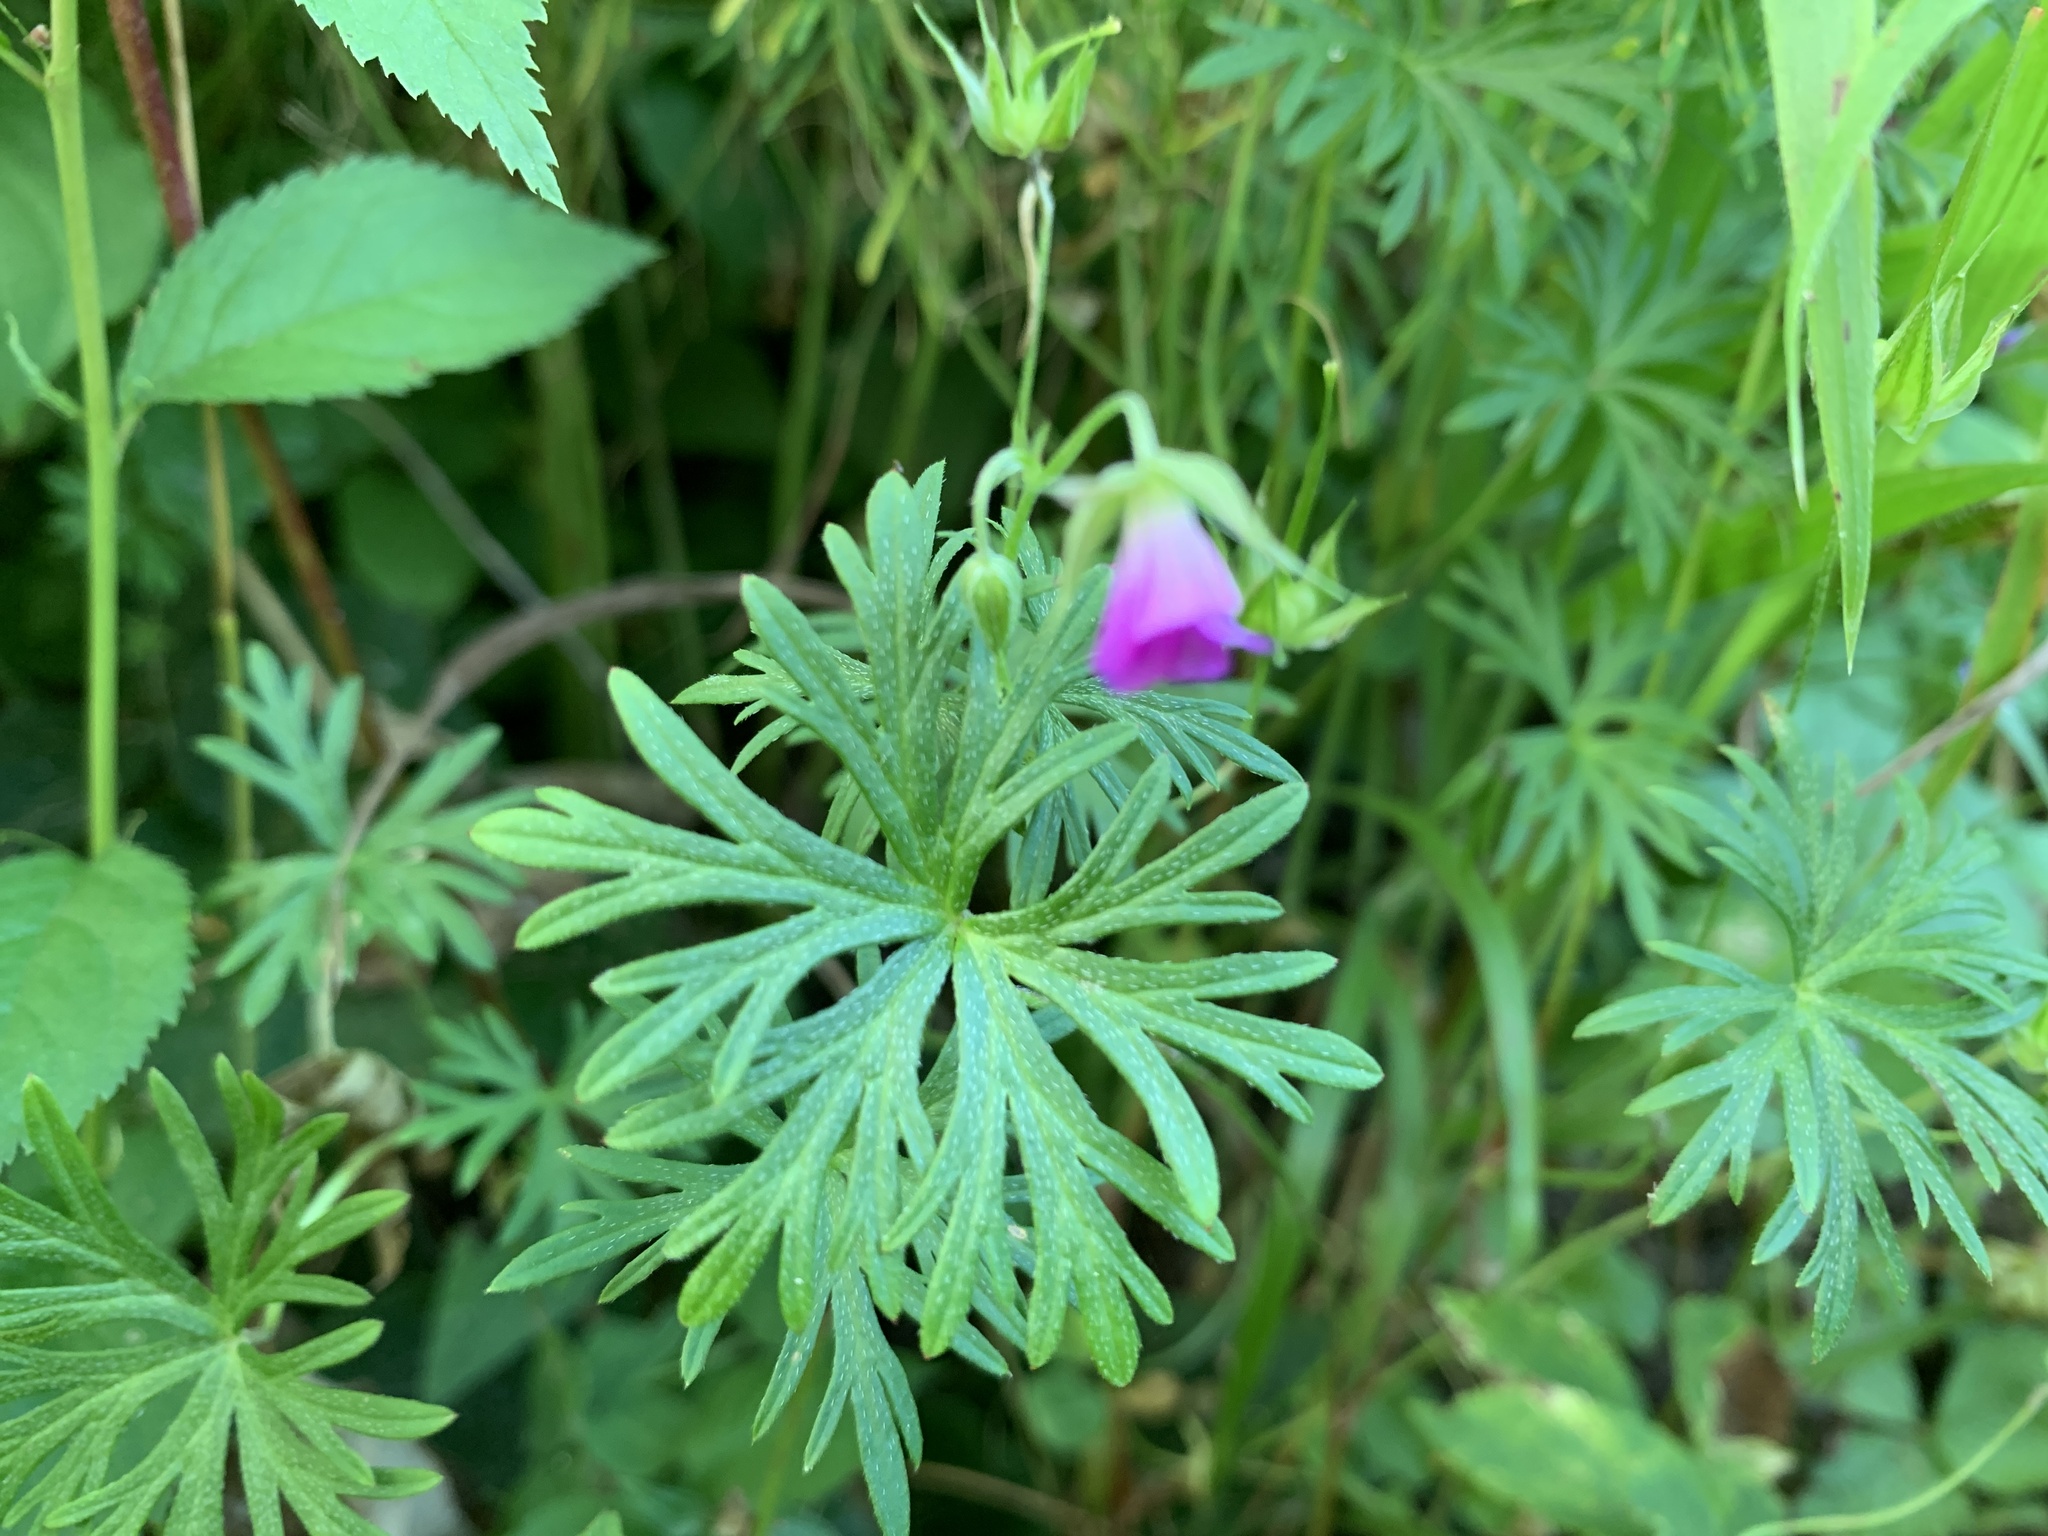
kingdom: Plantae
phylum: Tracheophyta
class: Magnoliopsida
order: Geraniales
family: Geraniaceae
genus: Geranium
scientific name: Geranium columbinum
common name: Long-stalked crane's-bill
